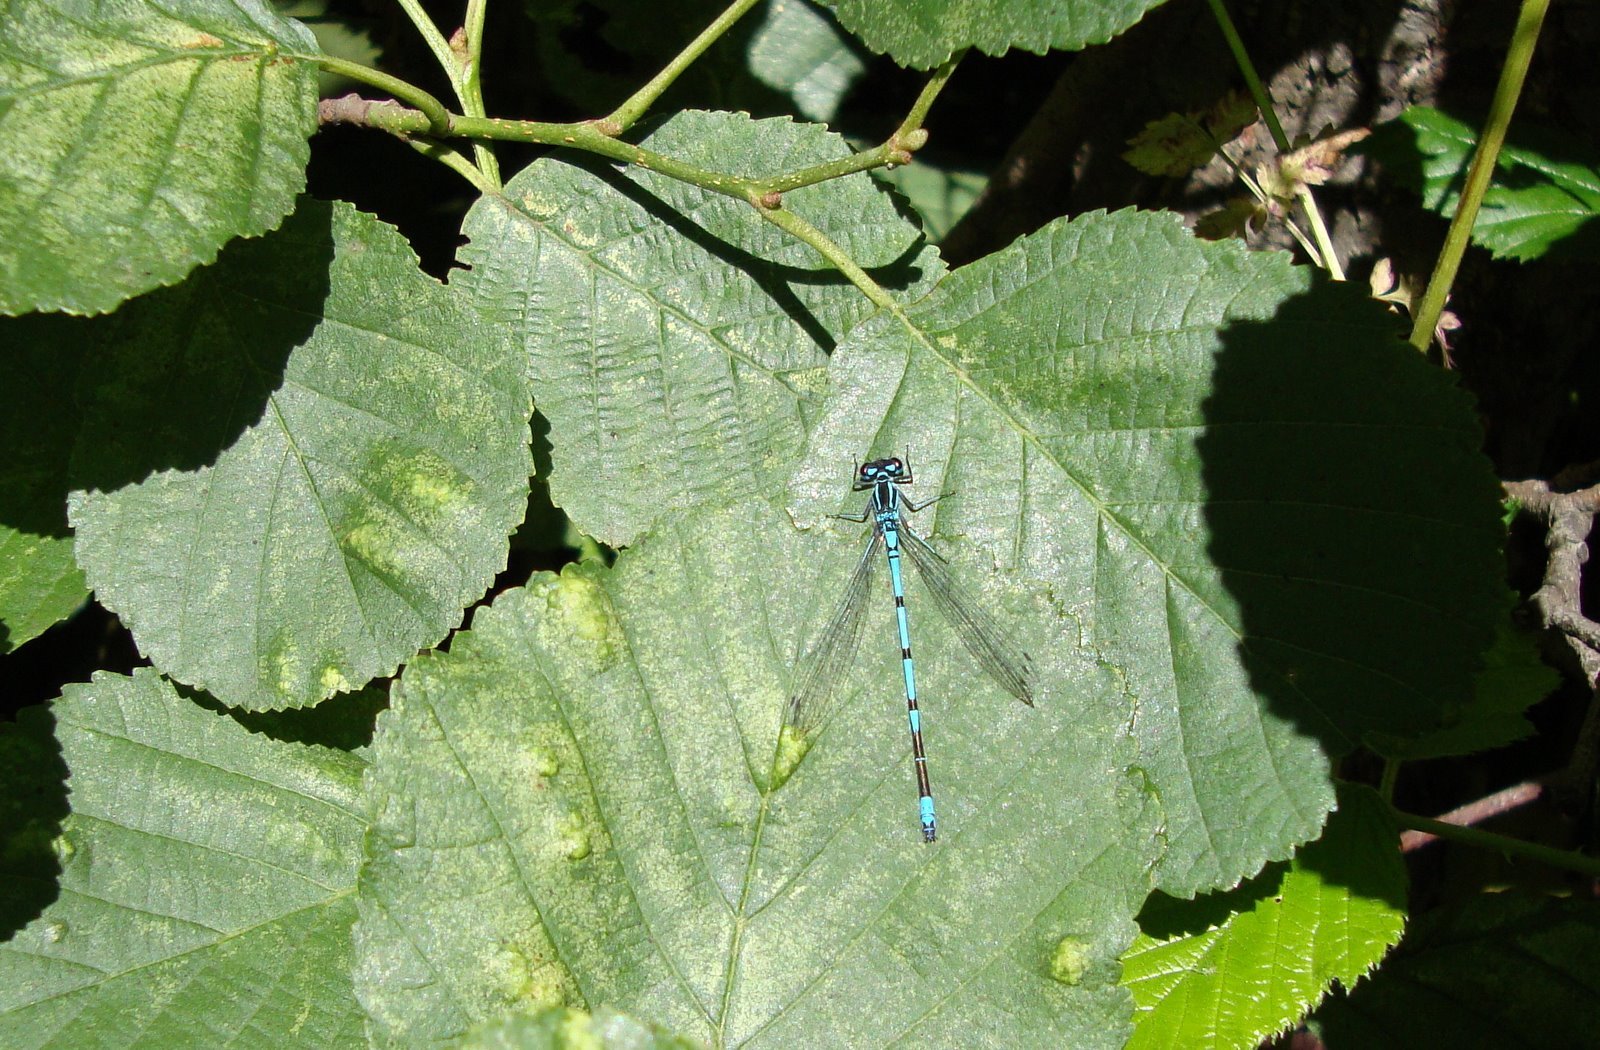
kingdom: Animalia
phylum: Arthropoda
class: Insecta
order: Odonata
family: Coenagrionidae
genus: Coenagrion
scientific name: Coenagrion puella
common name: Azure damselfly
